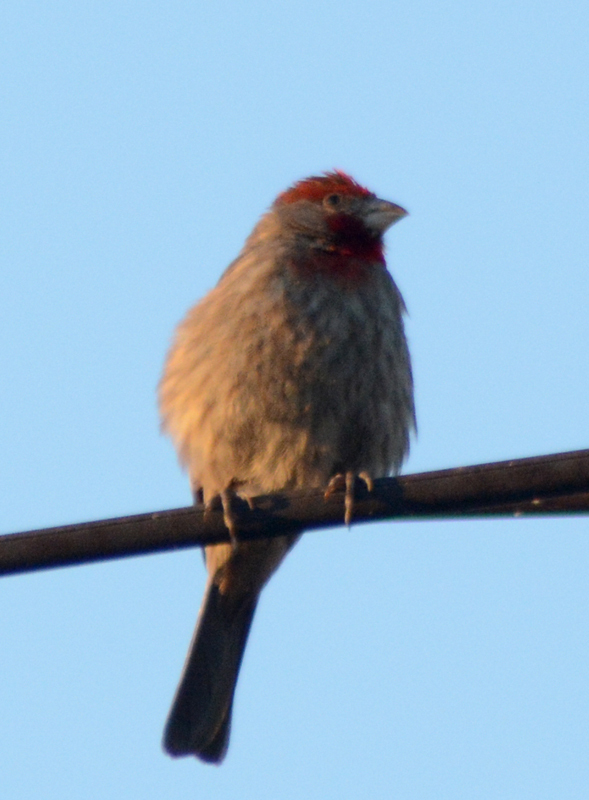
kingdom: Animalia
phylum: Chordata
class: Aves
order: Passeriformes
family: Fringillidae
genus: Haemorhous
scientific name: Haemorhous mexicanus
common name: House finch
